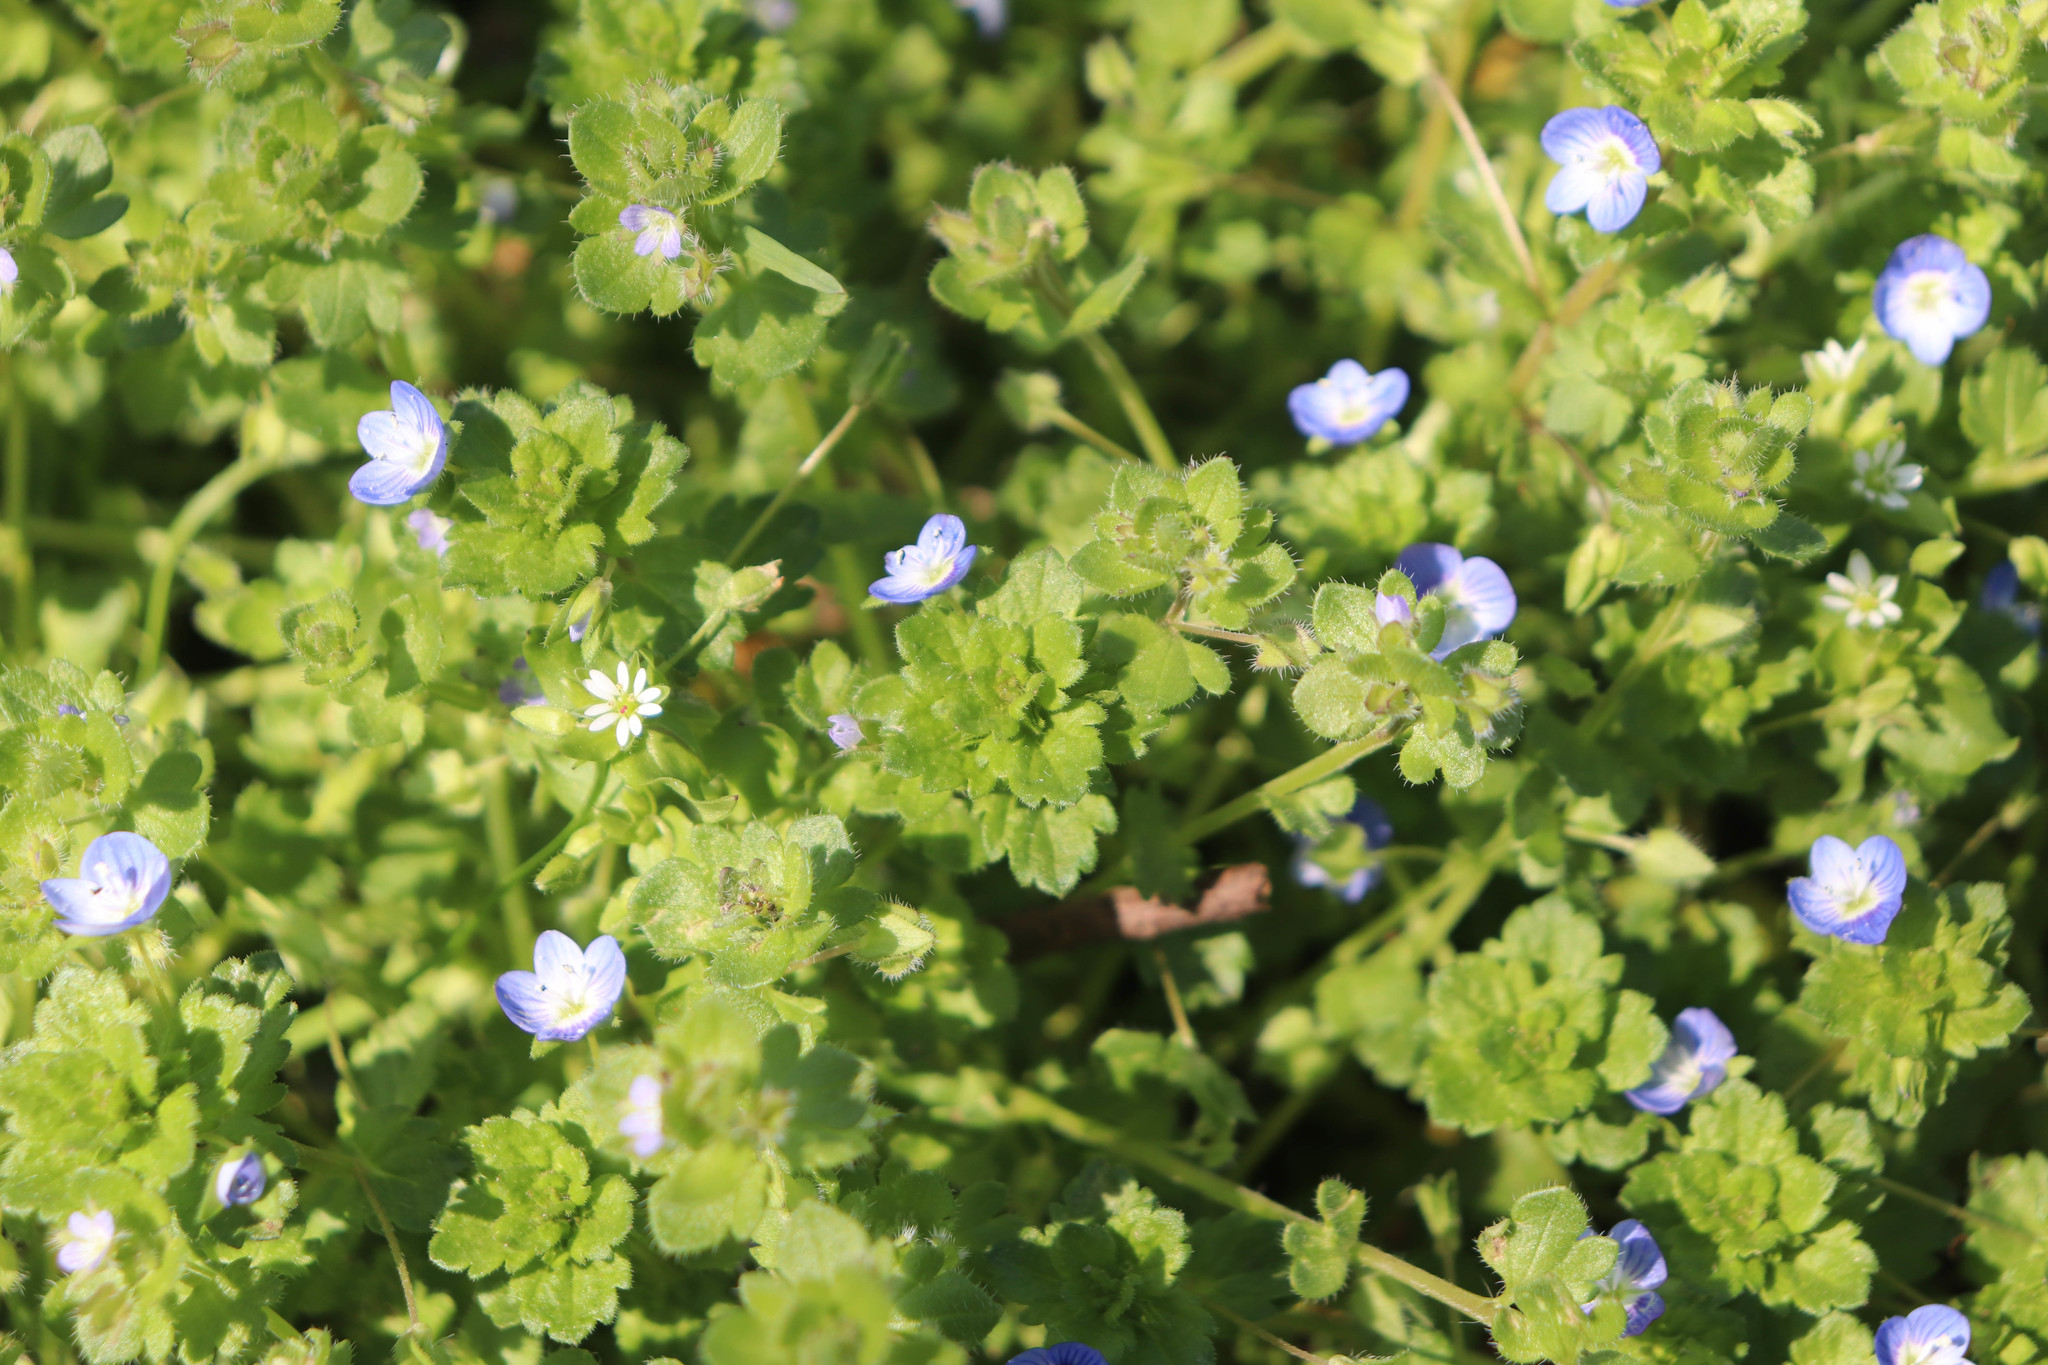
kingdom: Plantae
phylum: Tracheophyta
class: Magnoliopsida
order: Lamiales
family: Plantaginaceae
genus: Veronica
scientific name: Veronica persica
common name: Common field-speedwell
